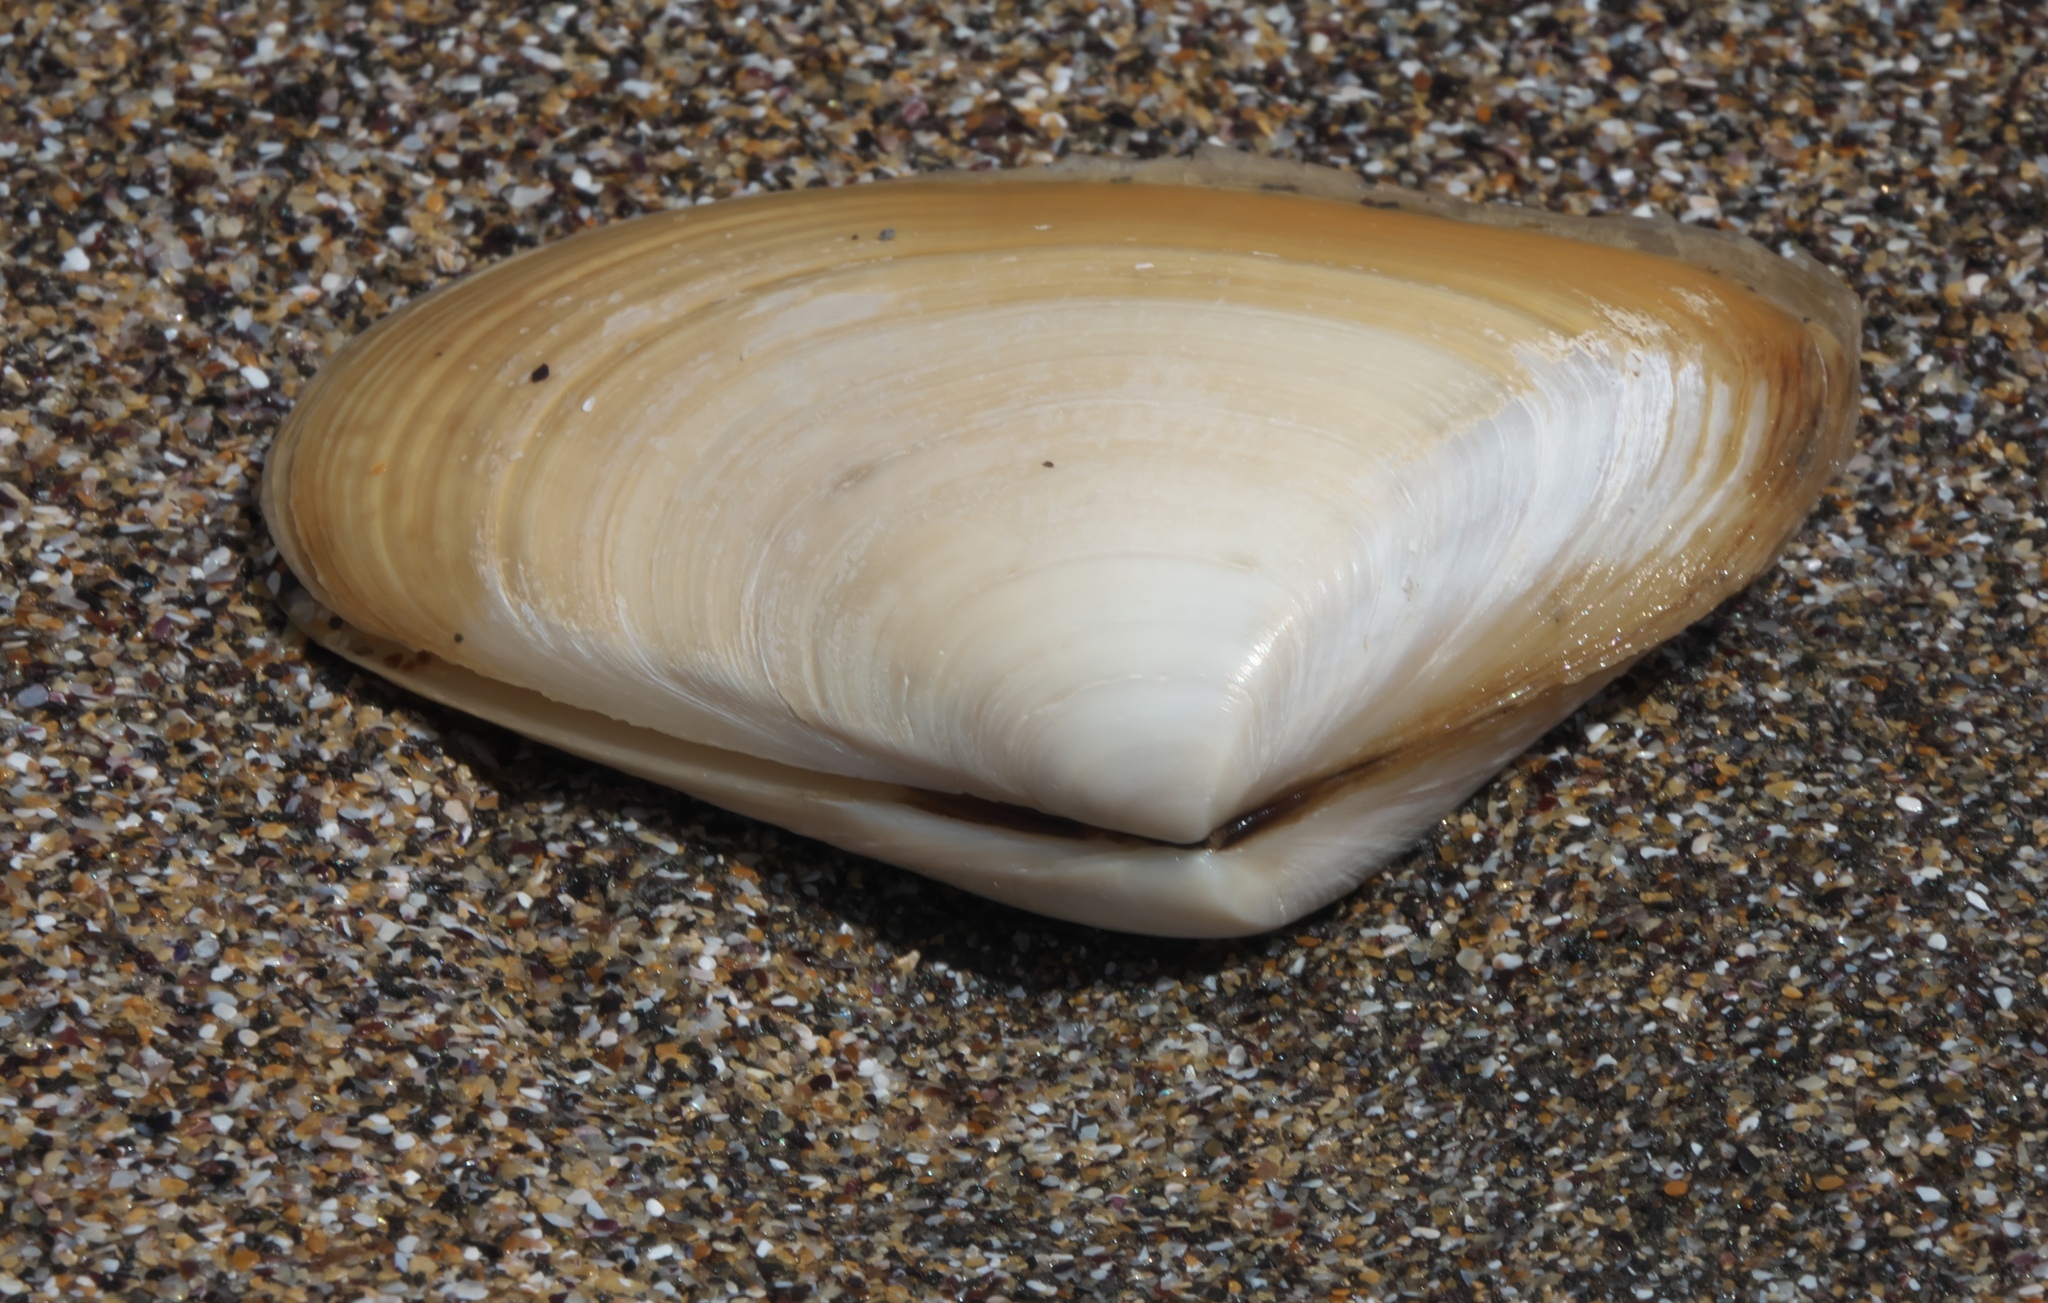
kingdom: Animalia
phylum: Mollusca
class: Bivalvia
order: Venerida
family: Mesodesmatidae
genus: Paphies
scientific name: Paphies donacina
